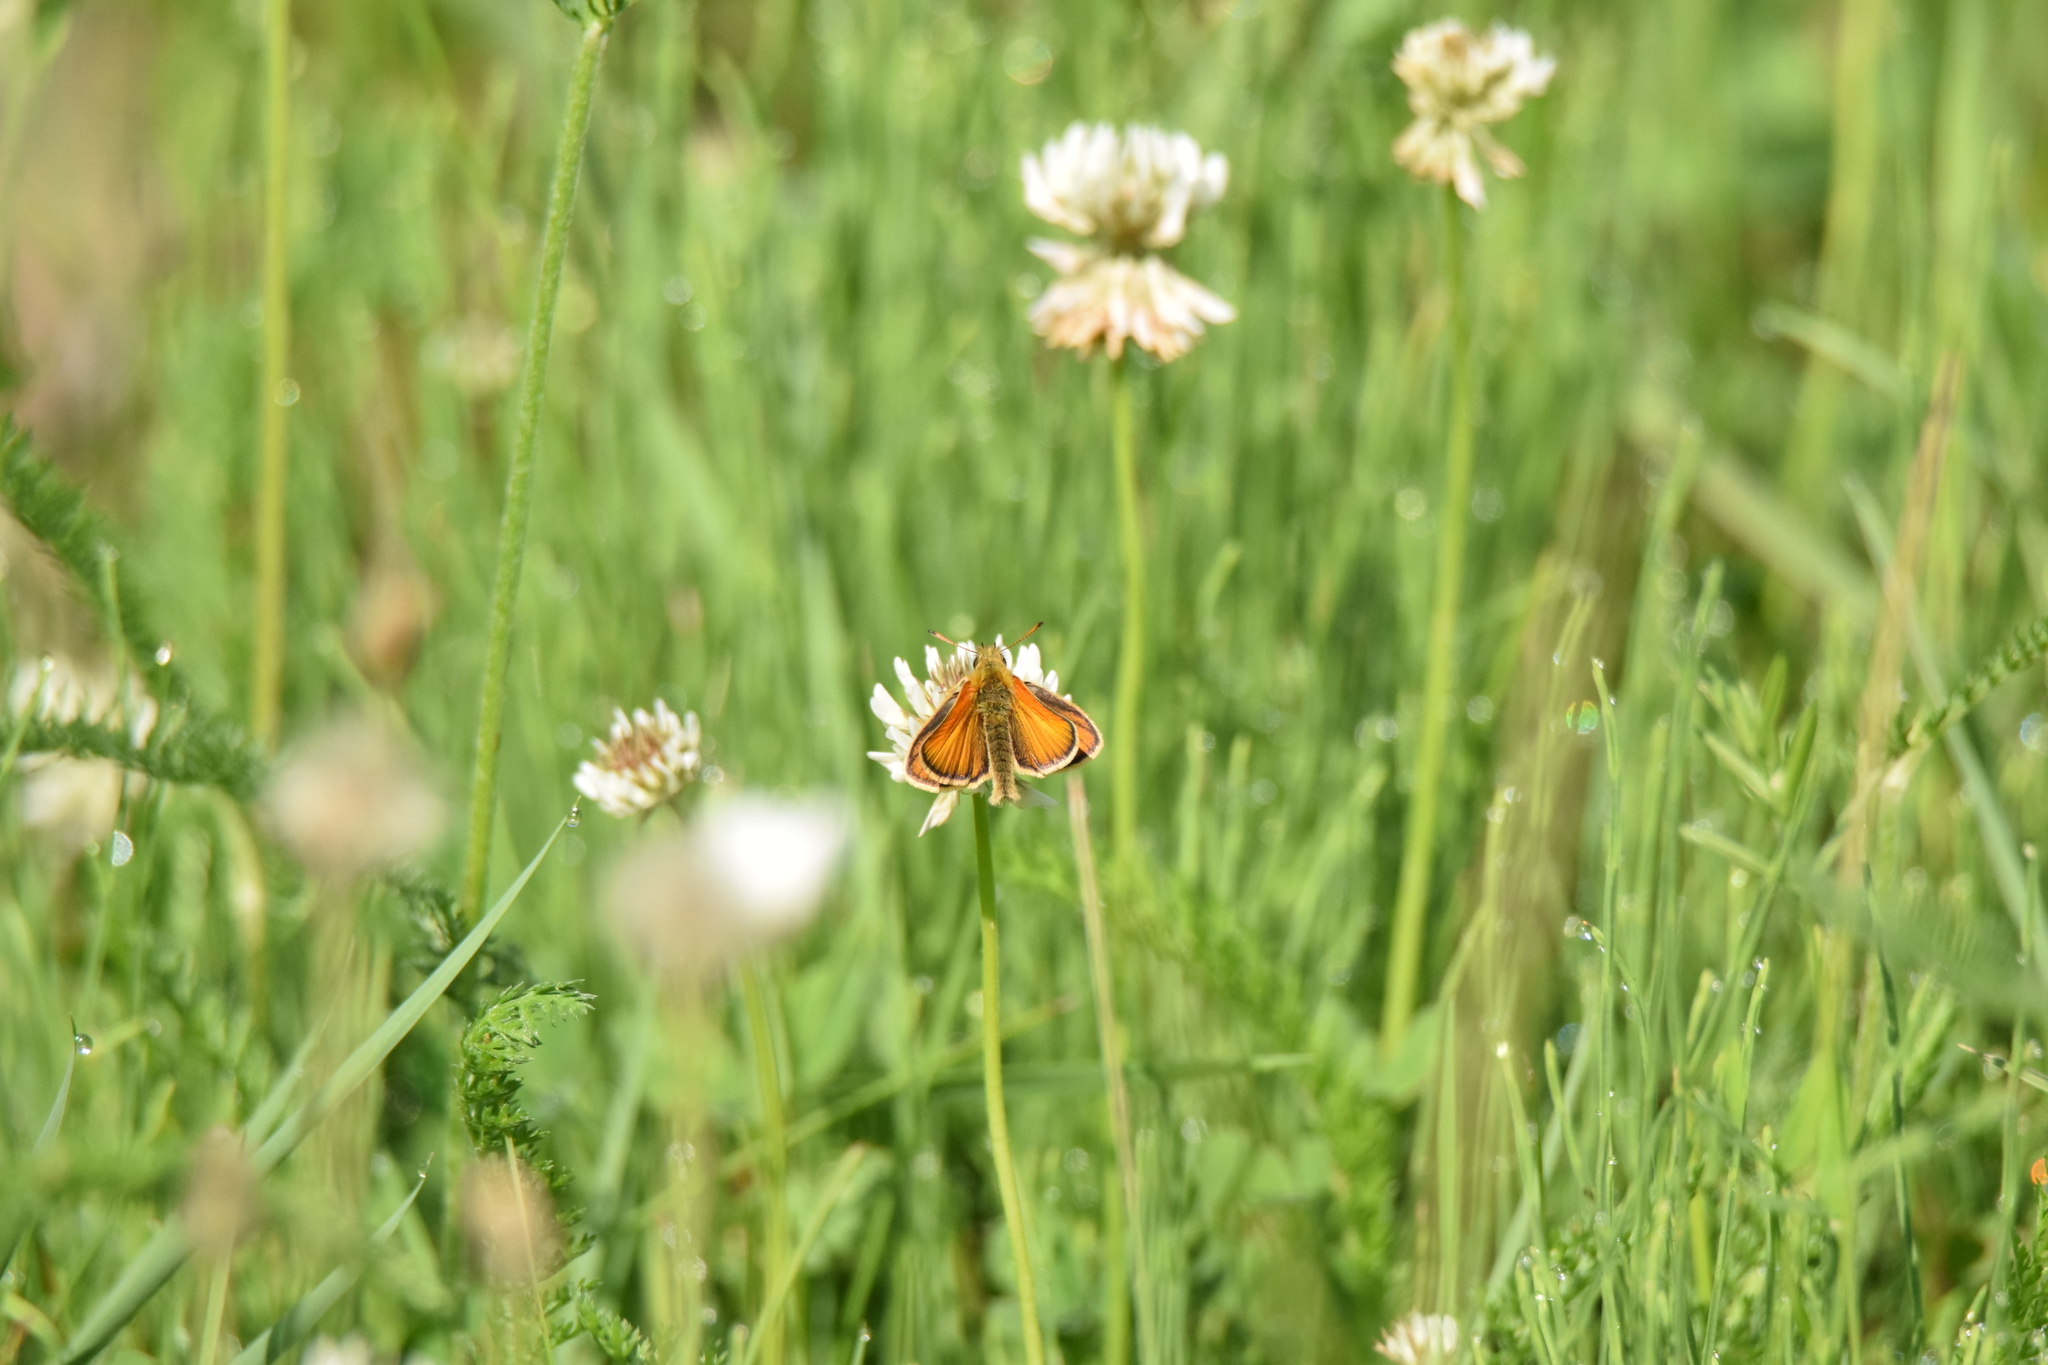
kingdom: Animalia
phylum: Arthropoda
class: Insecta
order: Lepidoptera
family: Hesperiidae
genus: Thymelicus
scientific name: Thymelicus lineola
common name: Essex skipper
